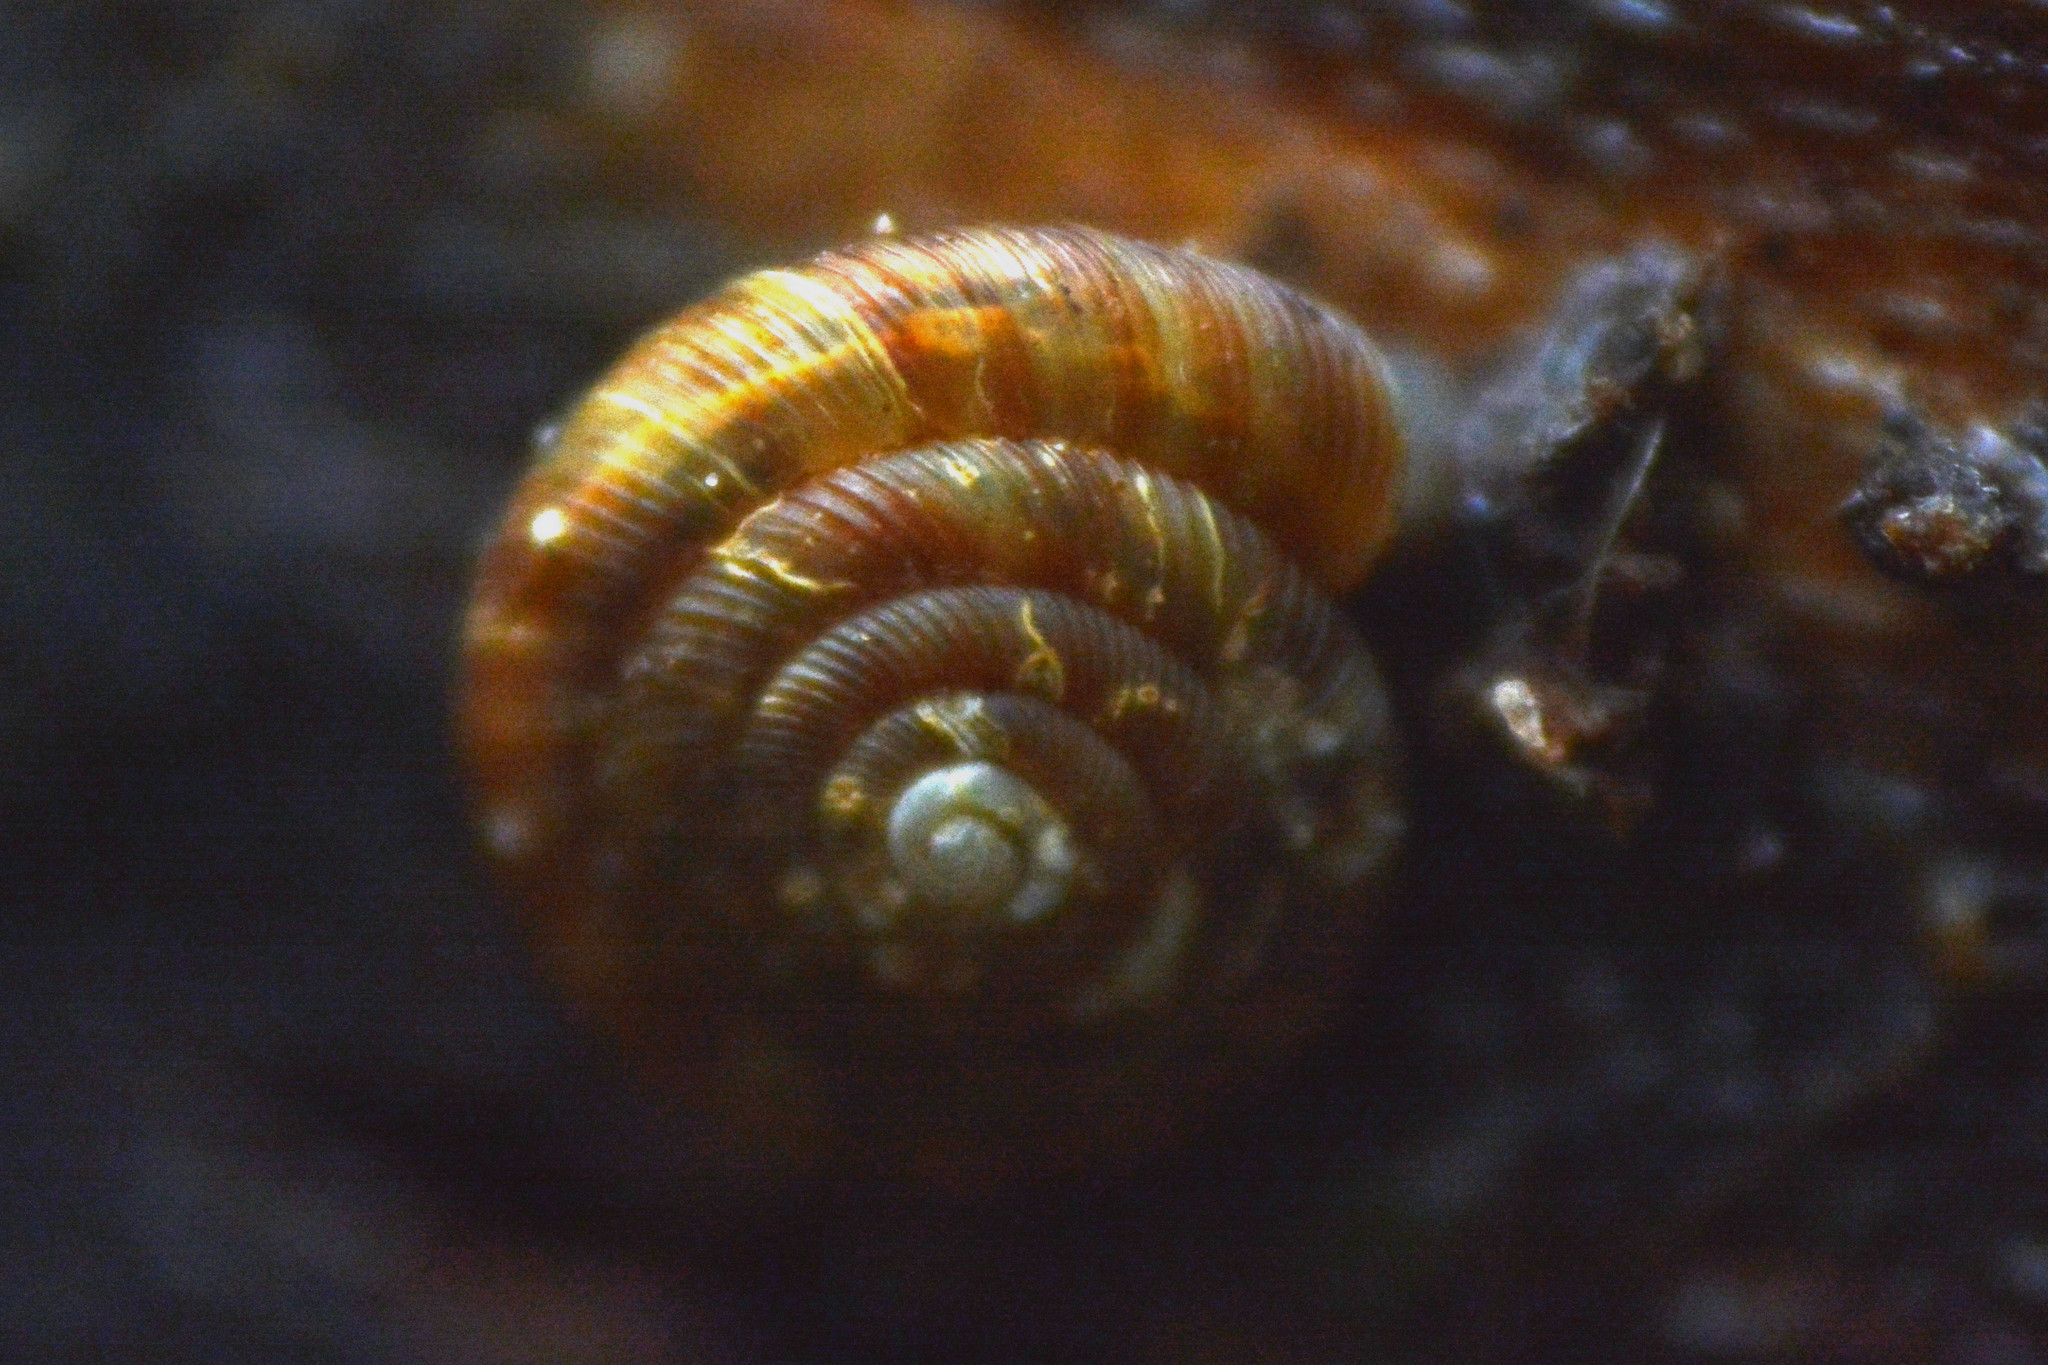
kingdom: Animalia
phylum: Mollusca
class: Gastropoda
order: Stylommatophora
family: Discidae
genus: Discus
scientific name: Discus rotundatus
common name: Rounded snail
